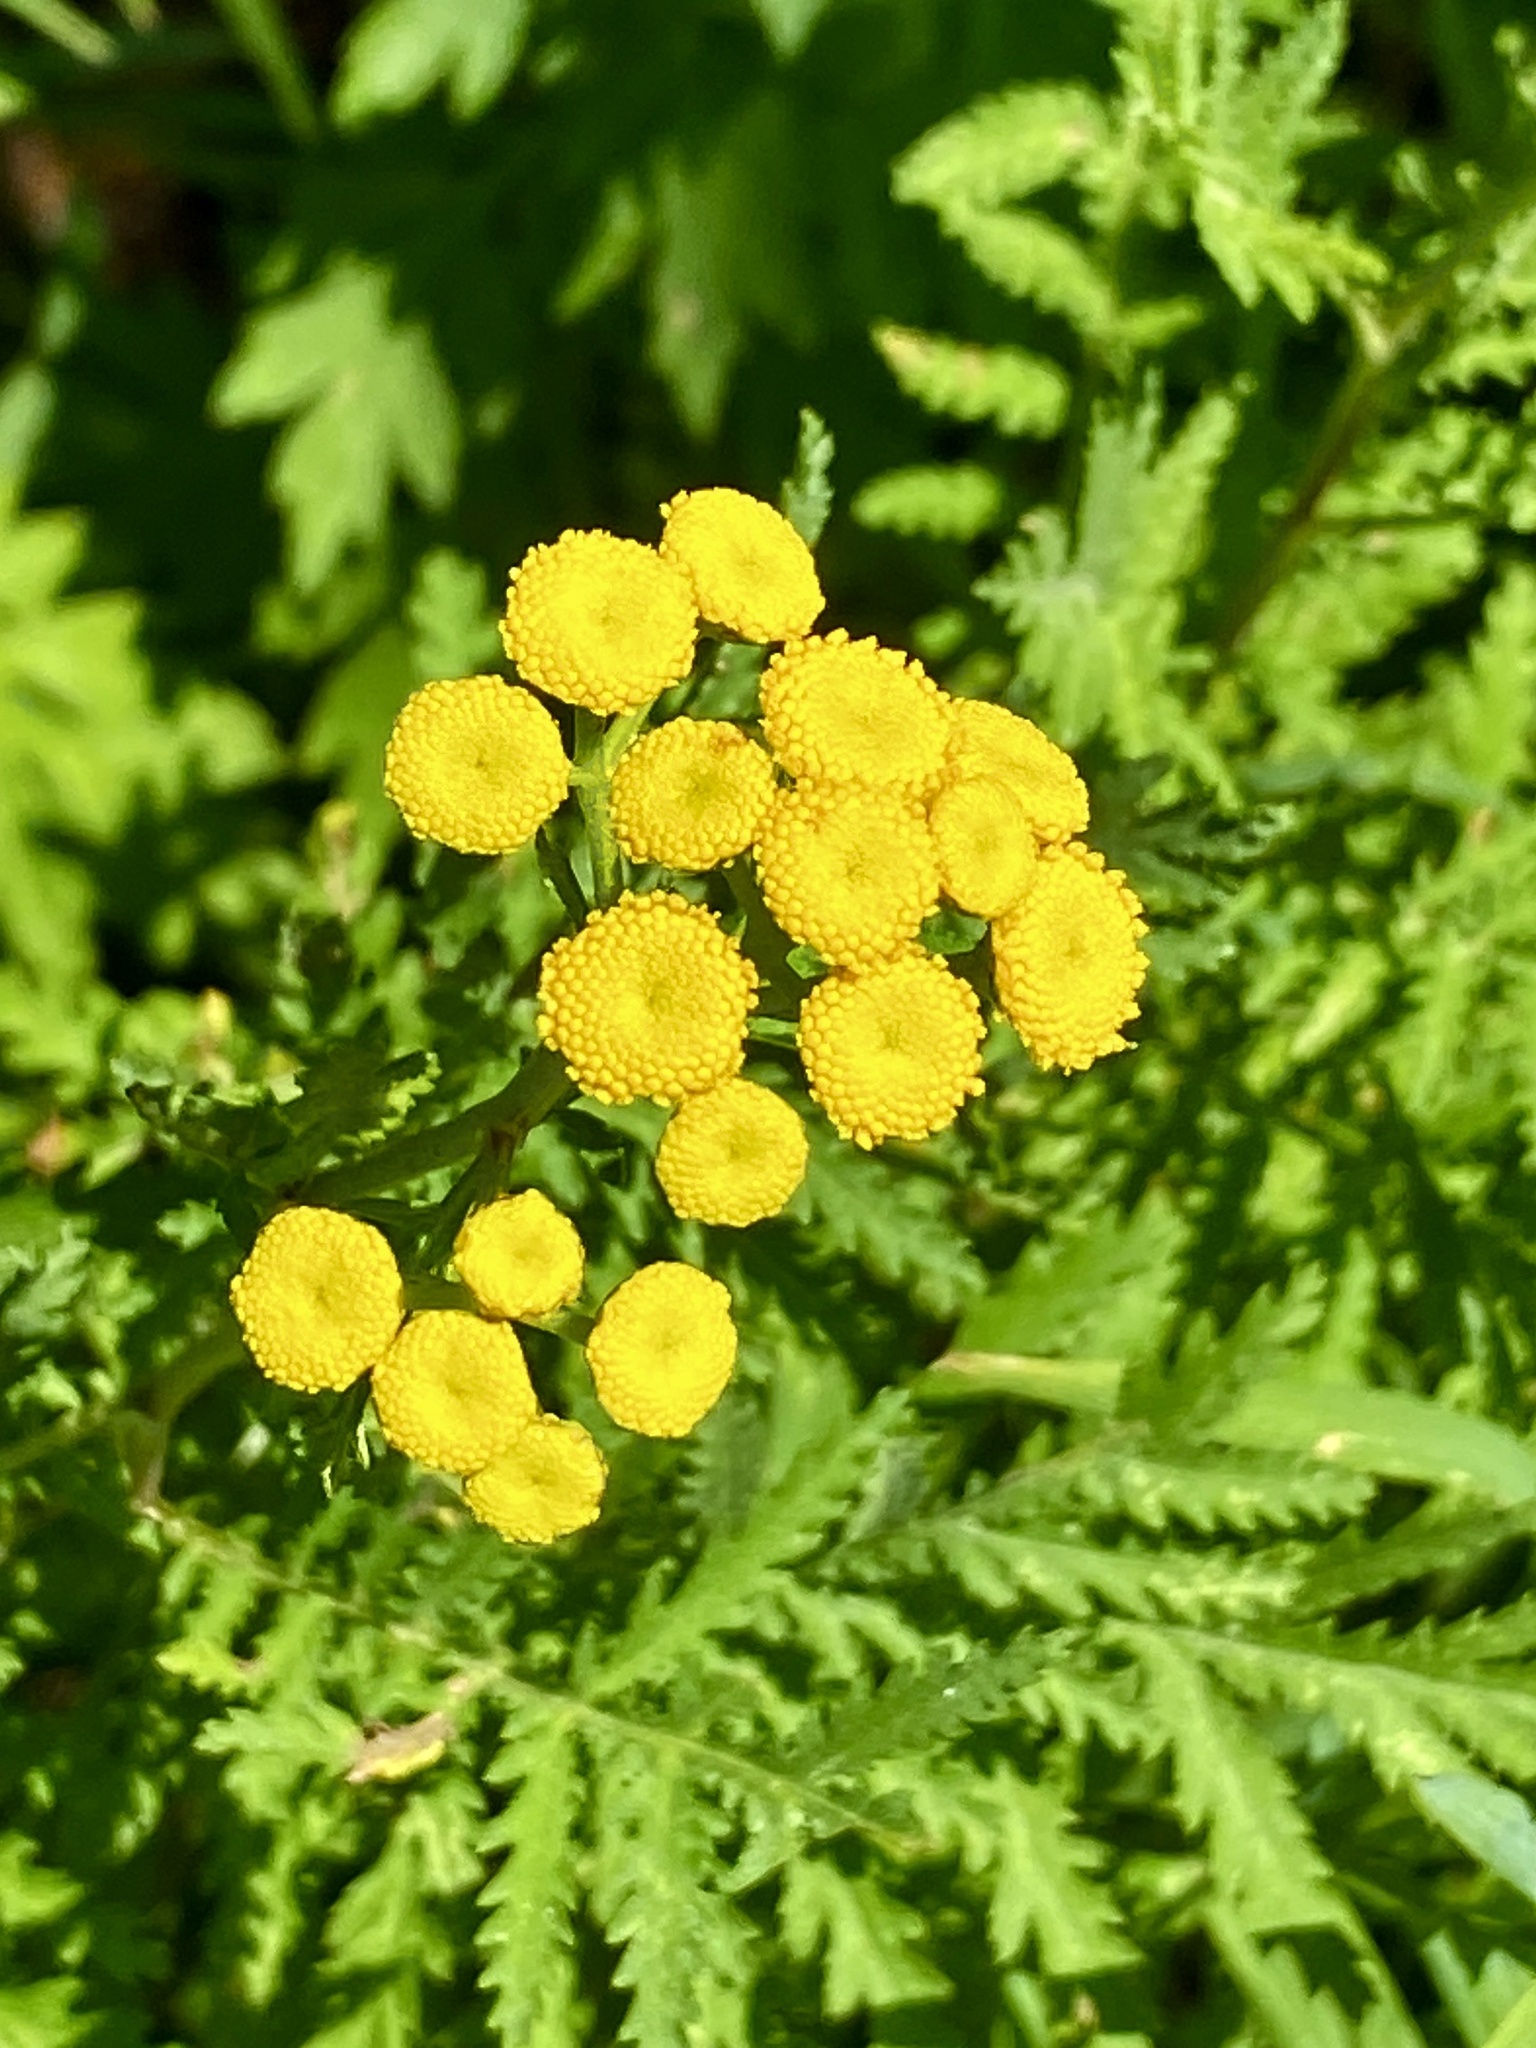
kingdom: Plantae
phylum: Tracheophyta
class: Magnoliopsida
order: Asterales
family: Asteraceae
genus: Tanacetum
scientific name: Tanacetum vulgare
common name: Common tansy
